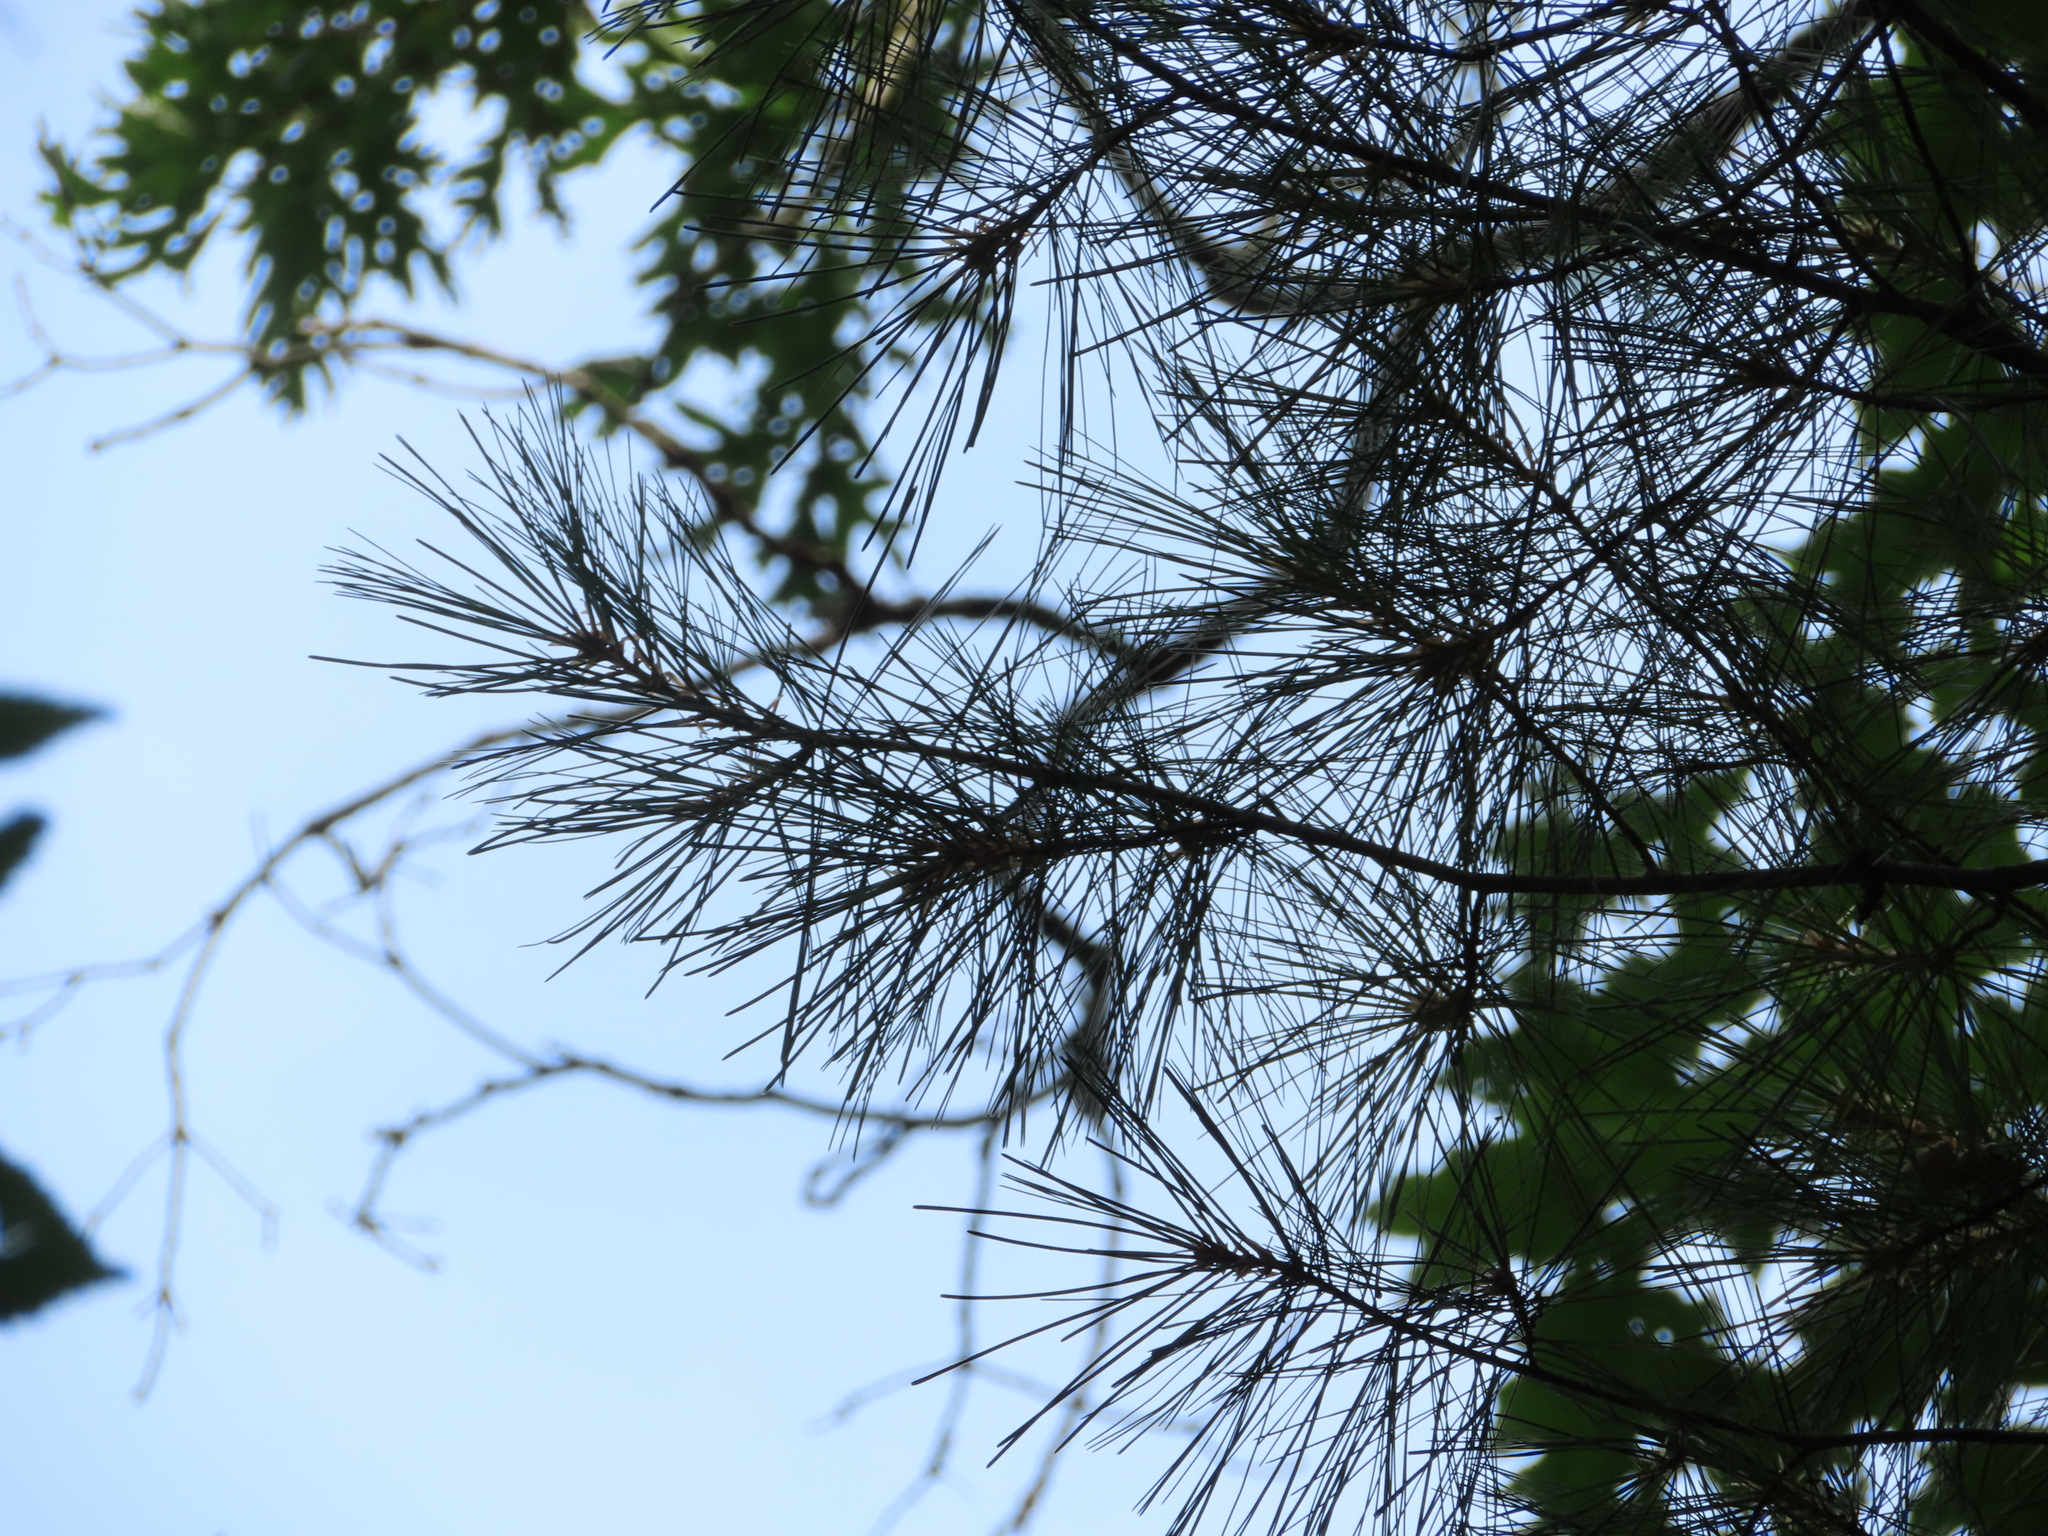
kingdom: Plantae
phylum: Tracheophyta
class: Pinopsida
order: Pinales
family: Pinaceae
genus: Pinus
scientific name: Pinus strobus
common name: Weymouth pine
